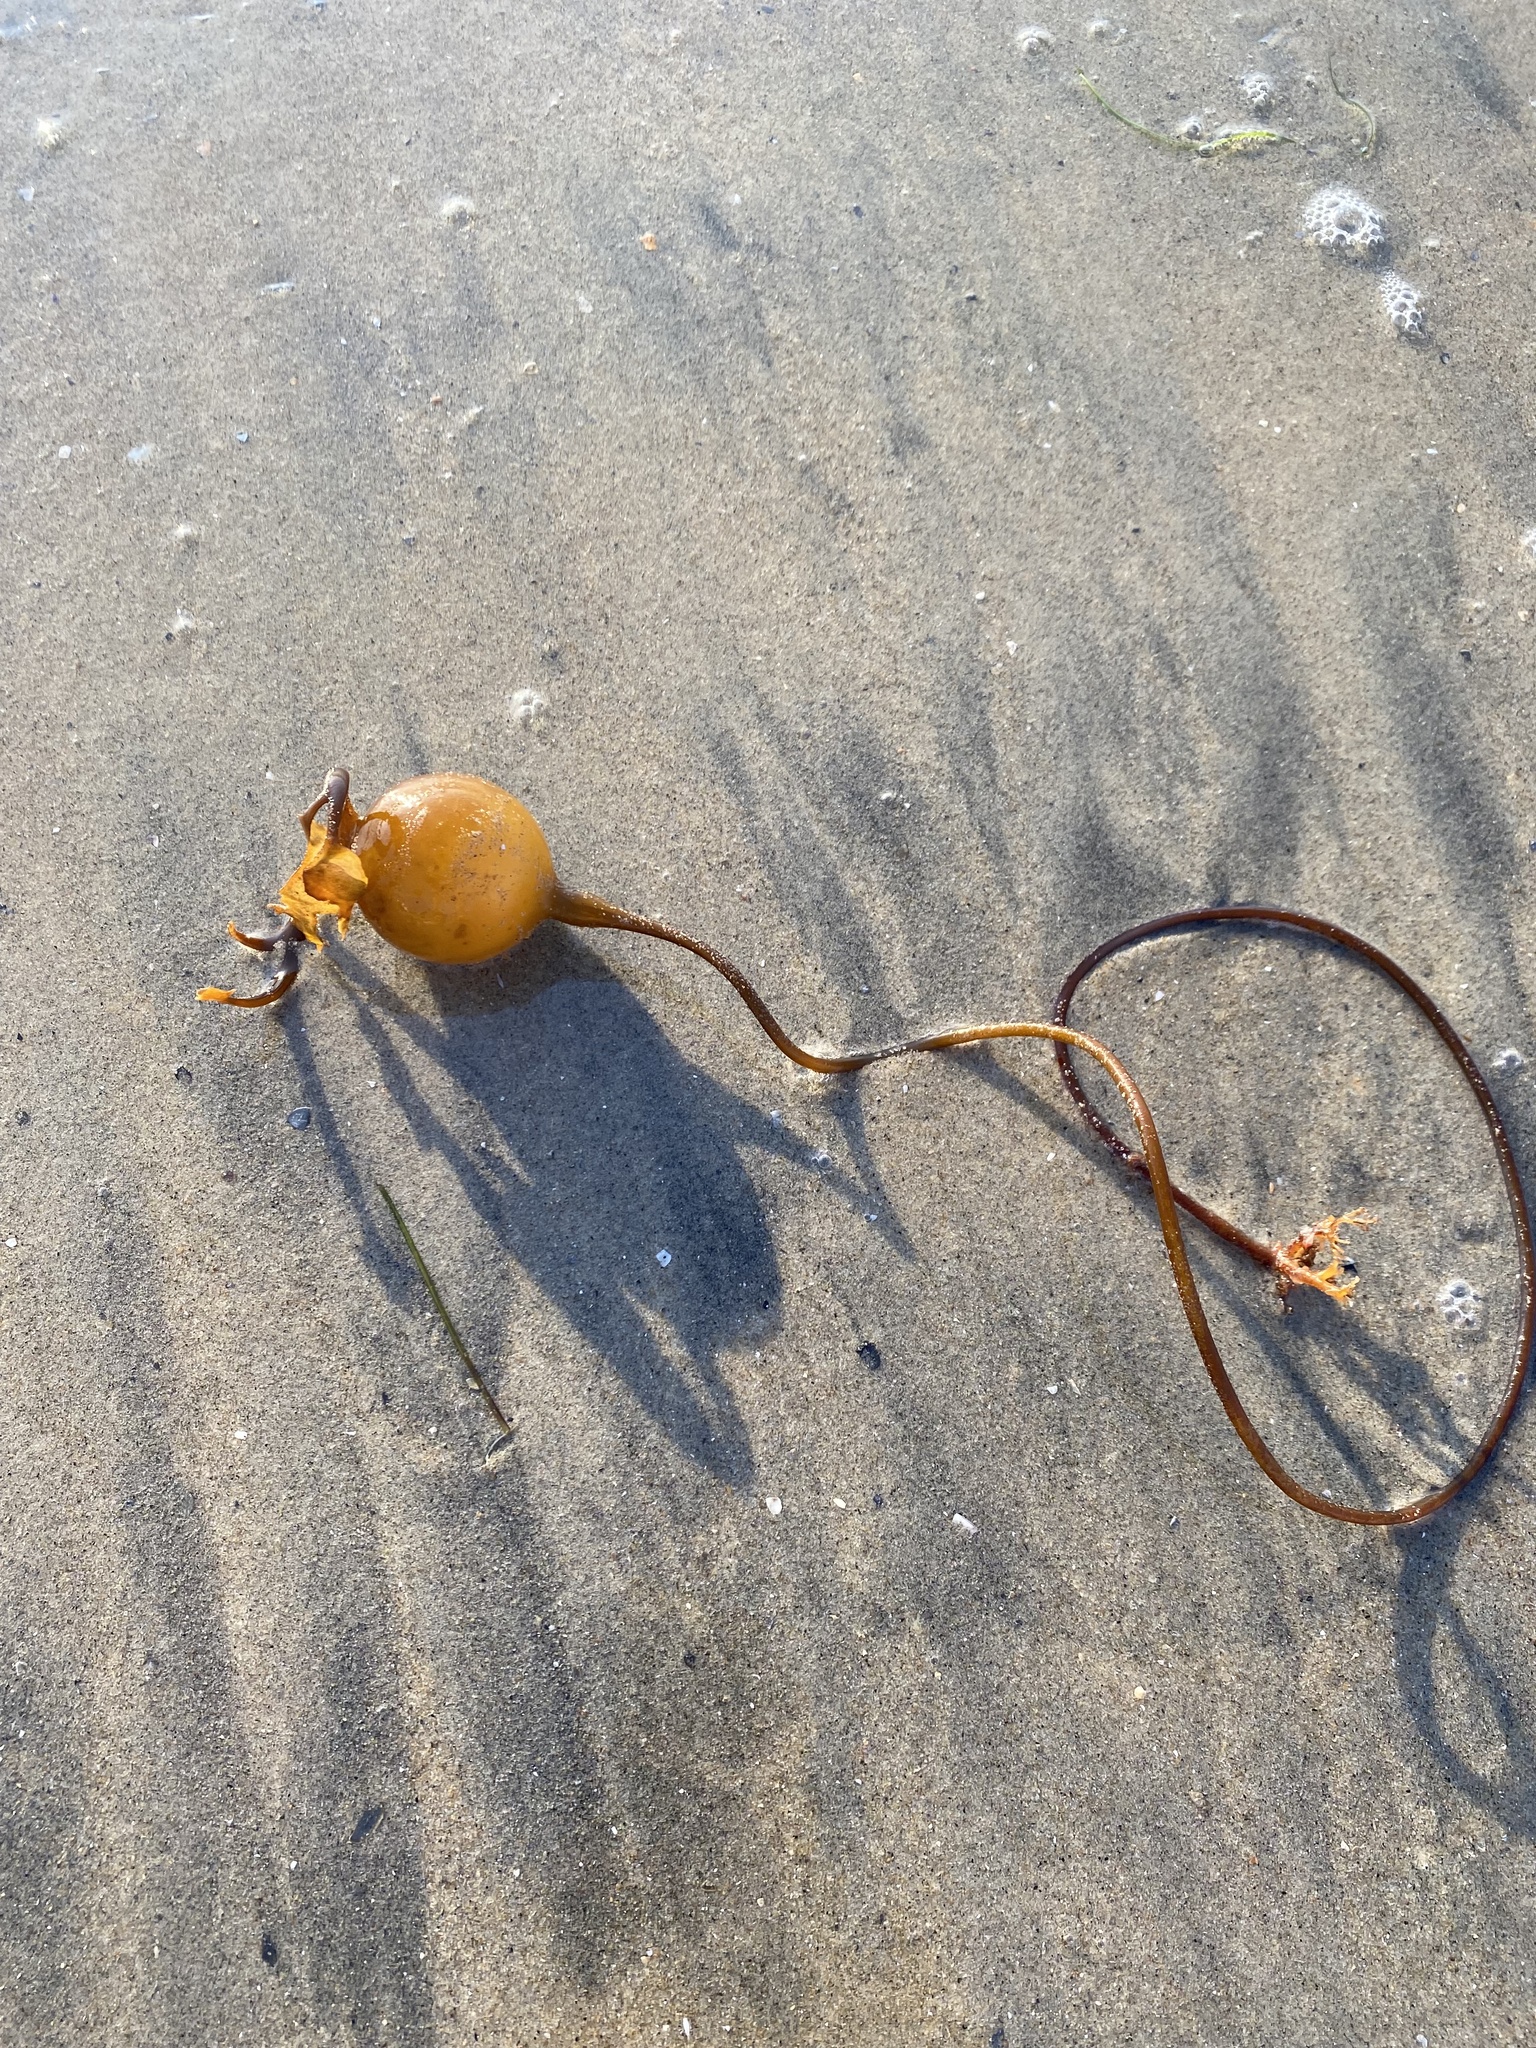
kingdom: Chromista
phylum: Ochrophyta
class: Phaeophyceae
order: Laminariales
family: Laminariaceae
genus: Pelagophycus
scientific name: Pelagophycus porra
